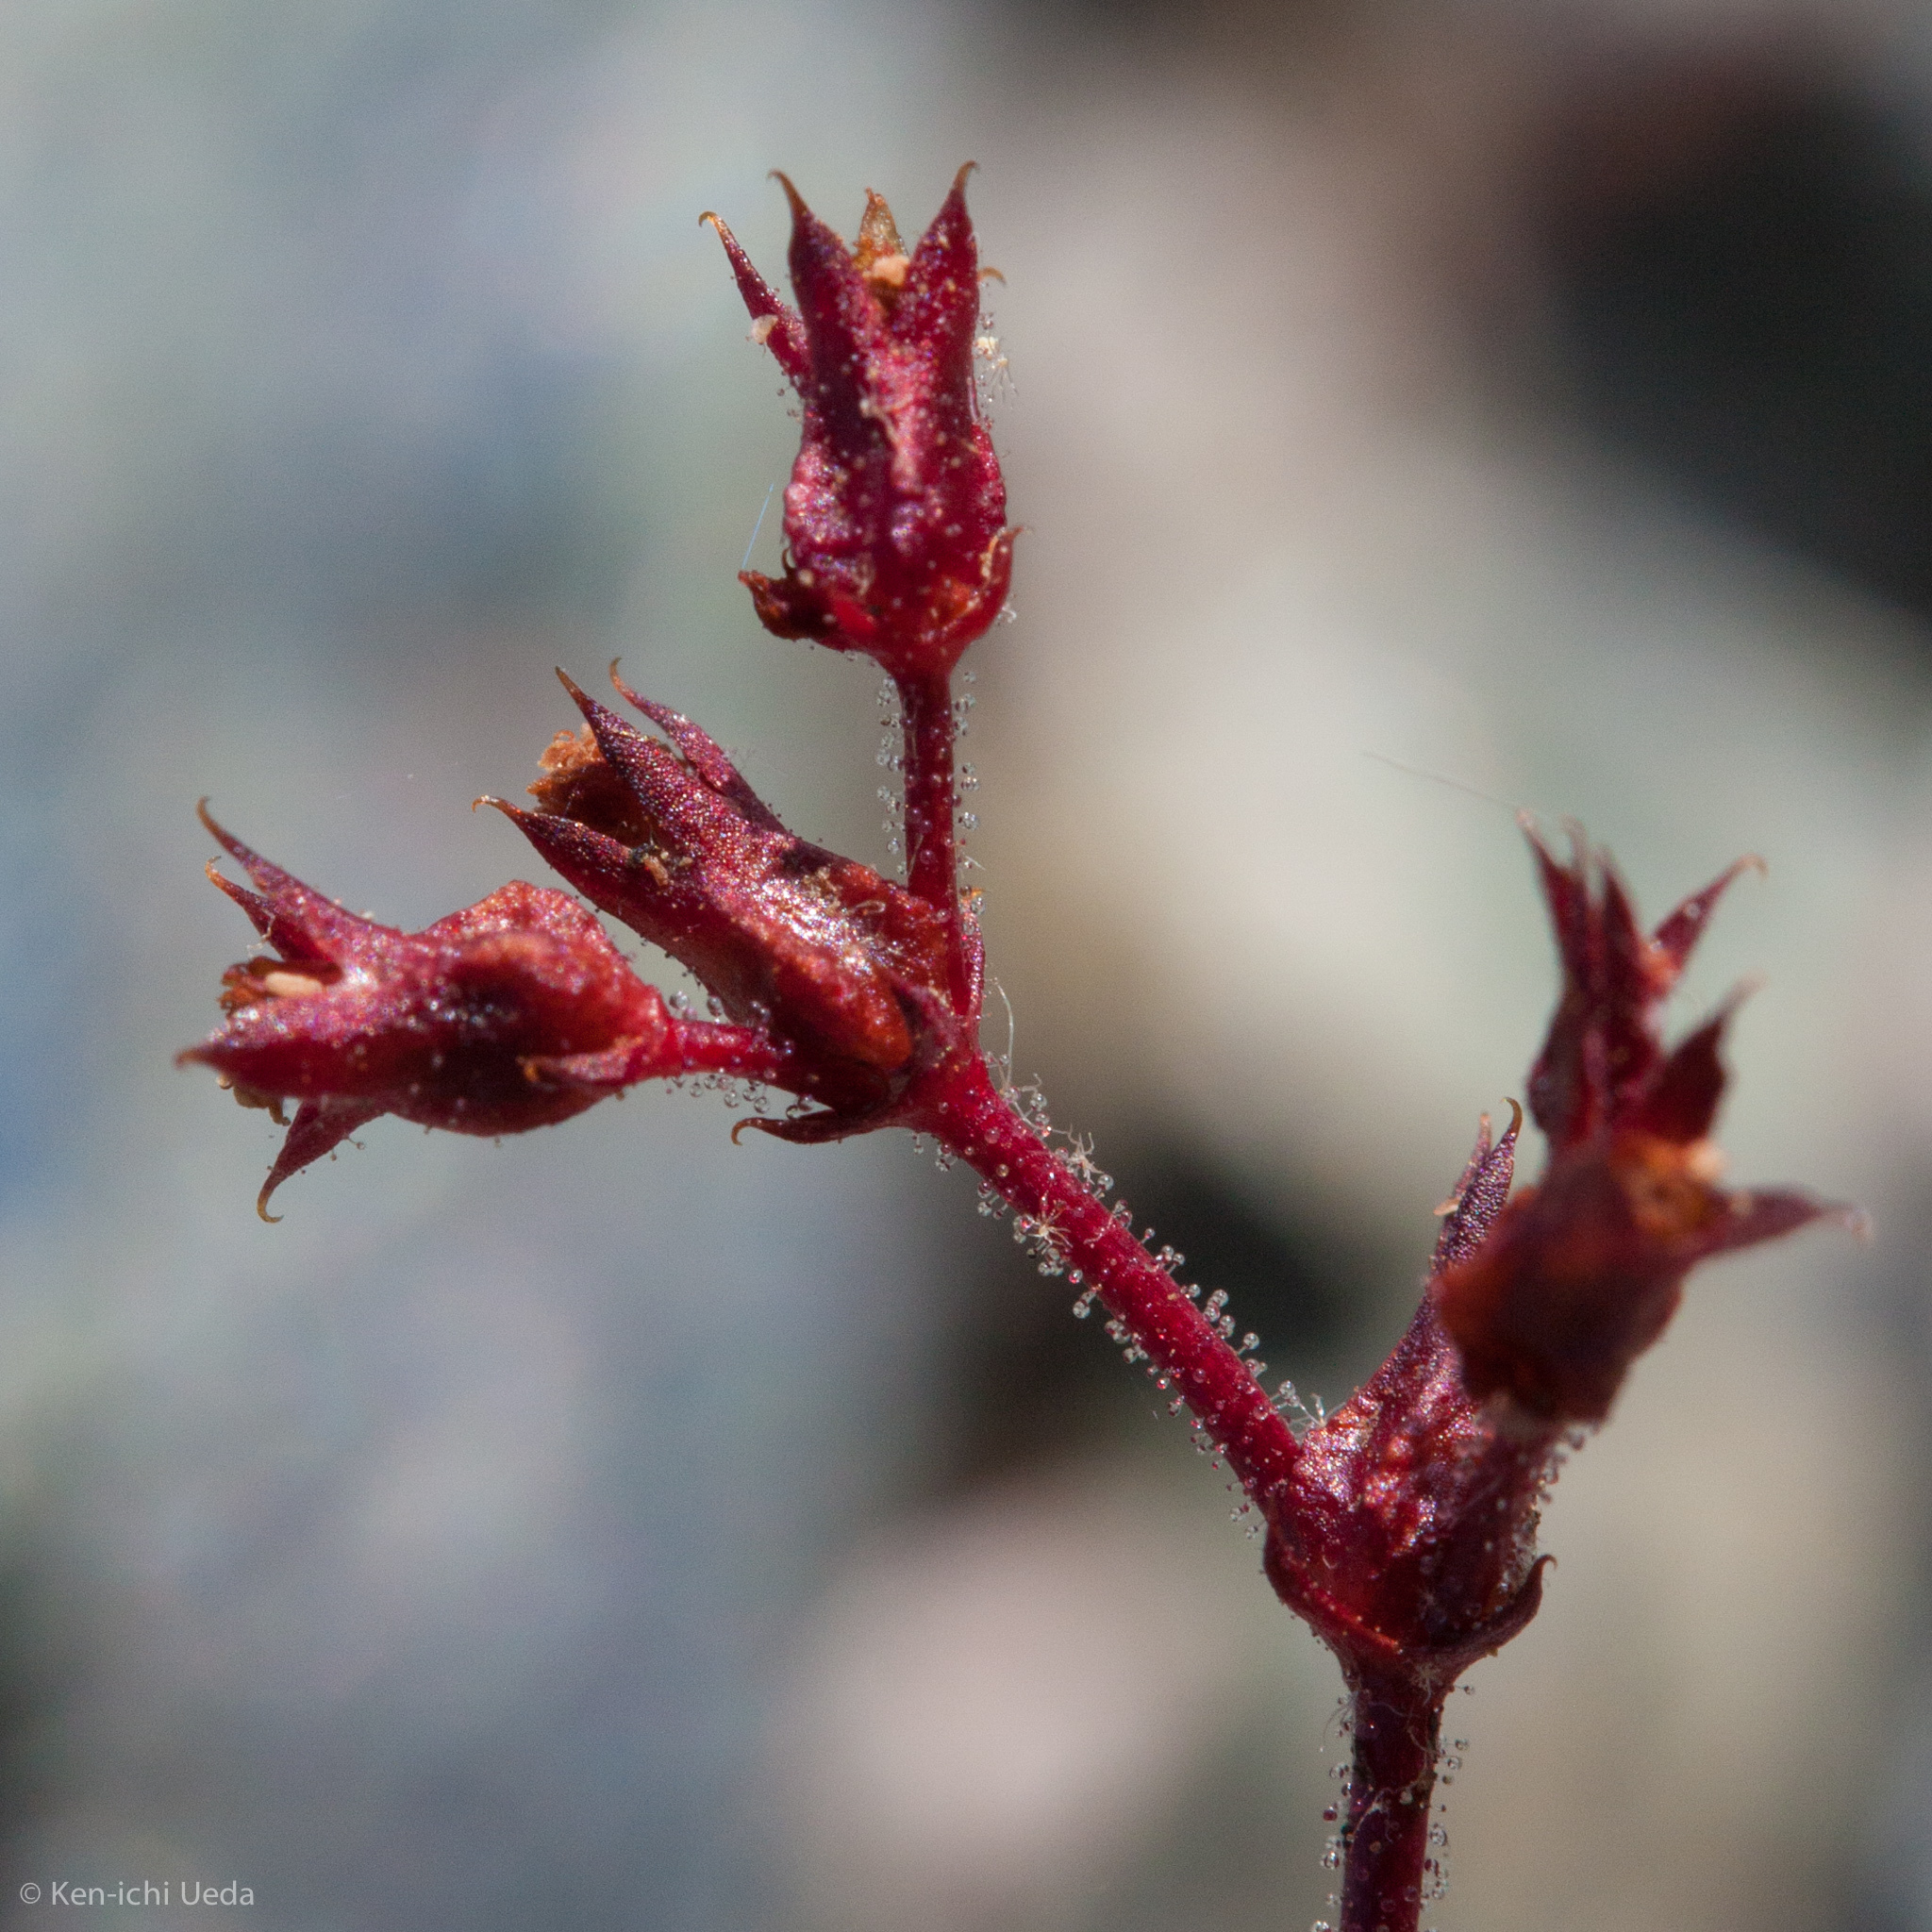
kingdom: Plantae
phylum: Tracheophyta
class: Magnoliopsida
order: Caryophyllales
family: Polygonaceae
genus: Systenotheca
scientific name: Systenotheca vortriedei
